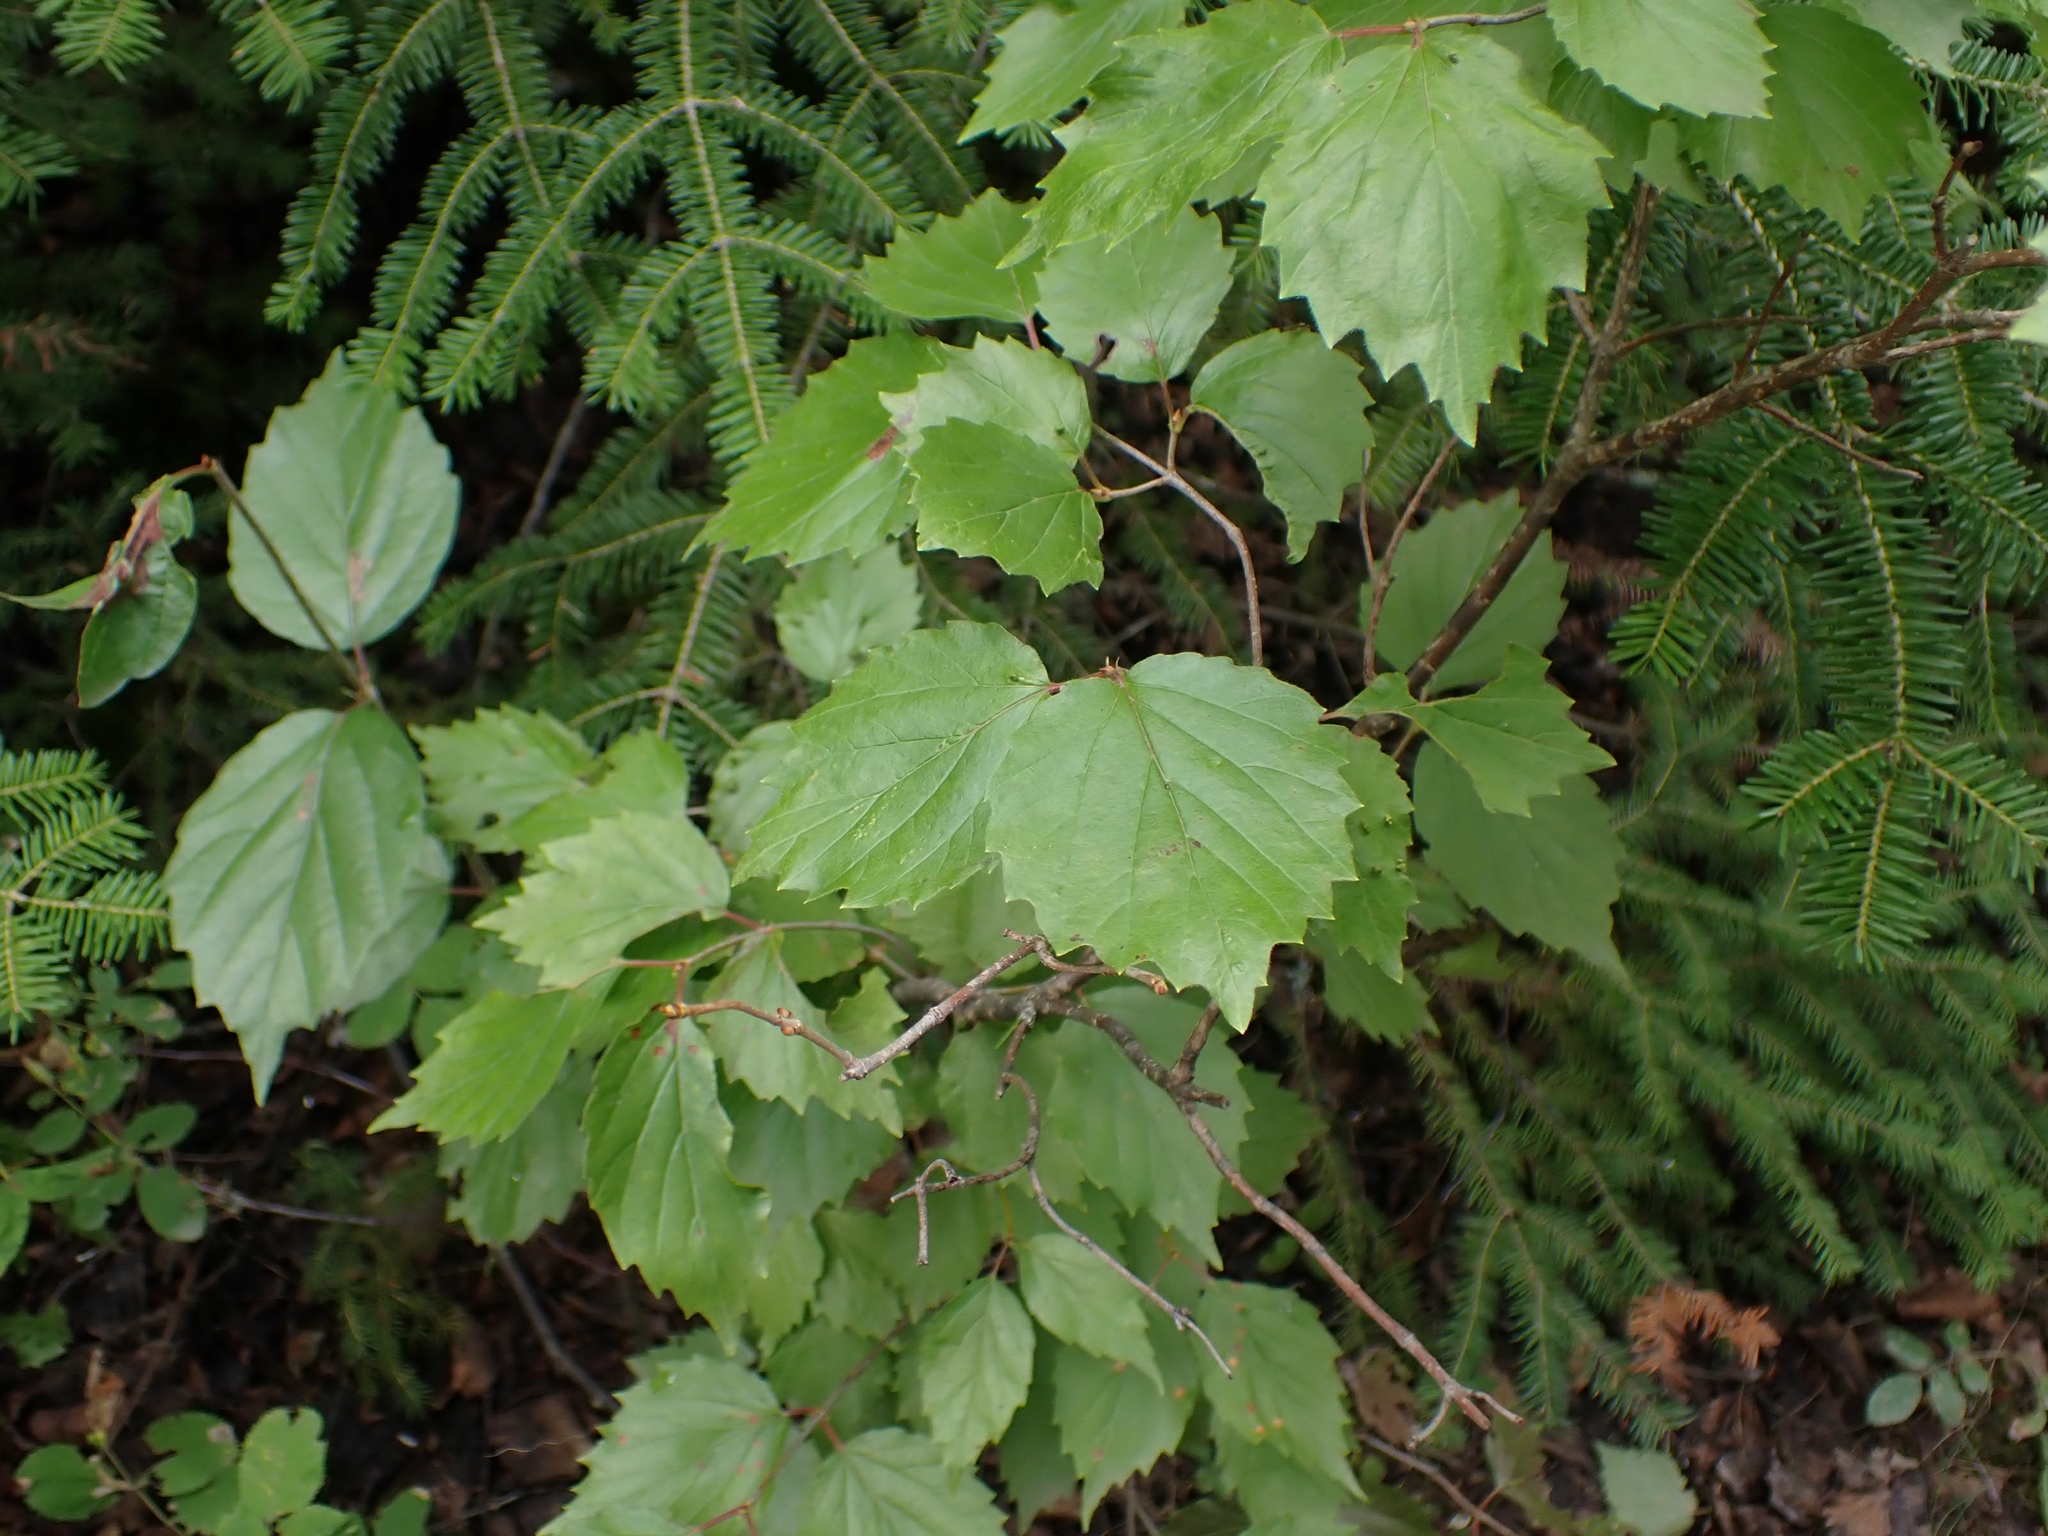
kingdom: Plantae
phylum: Tracheophyta
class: Magnoliopsida
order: Dipsacales
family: Viburnaceae
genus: Viburnum
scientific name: Viburnum rafinesqueanum
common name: Downy arrow-wood
